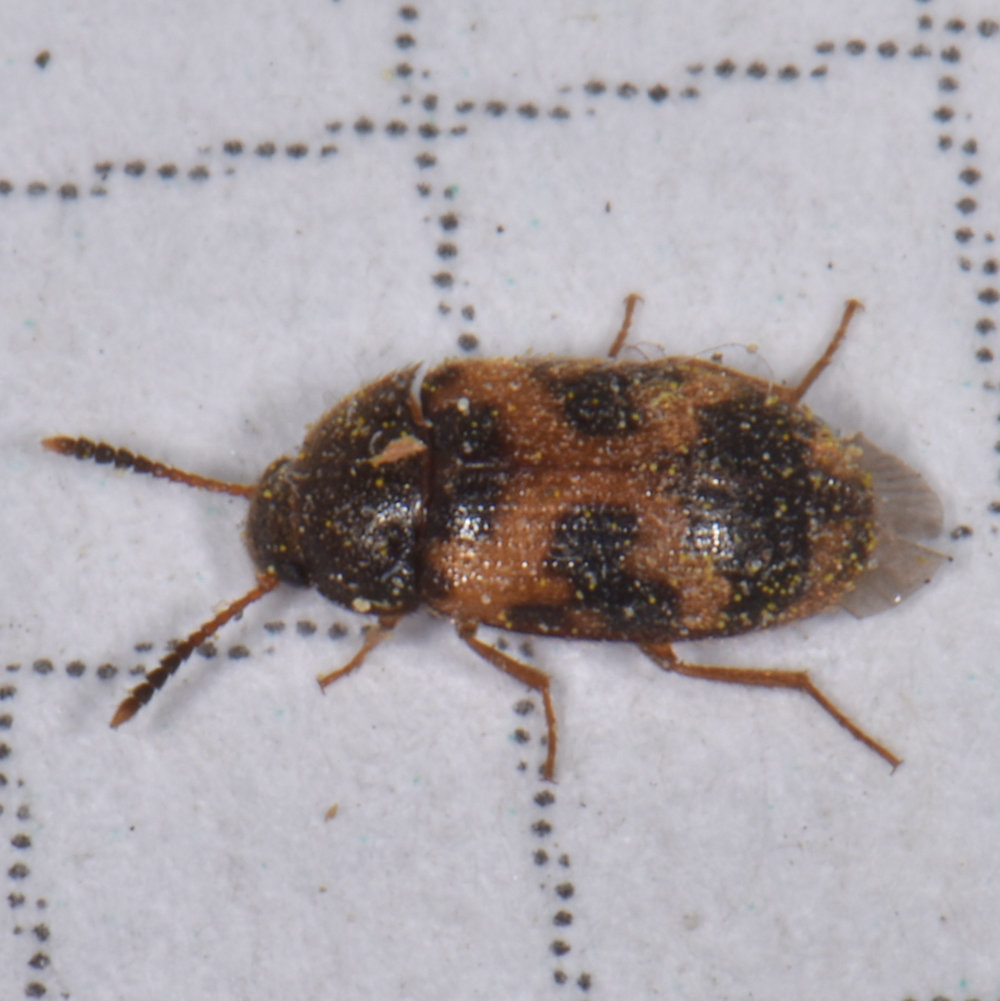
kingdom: Animalia
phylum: Arthropoda
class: Insecta
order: Coleoptera
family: Mycetophagidae
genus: Mycetophagus
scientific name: Mycetophagus punctatus
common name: Hairy fungus beetle
